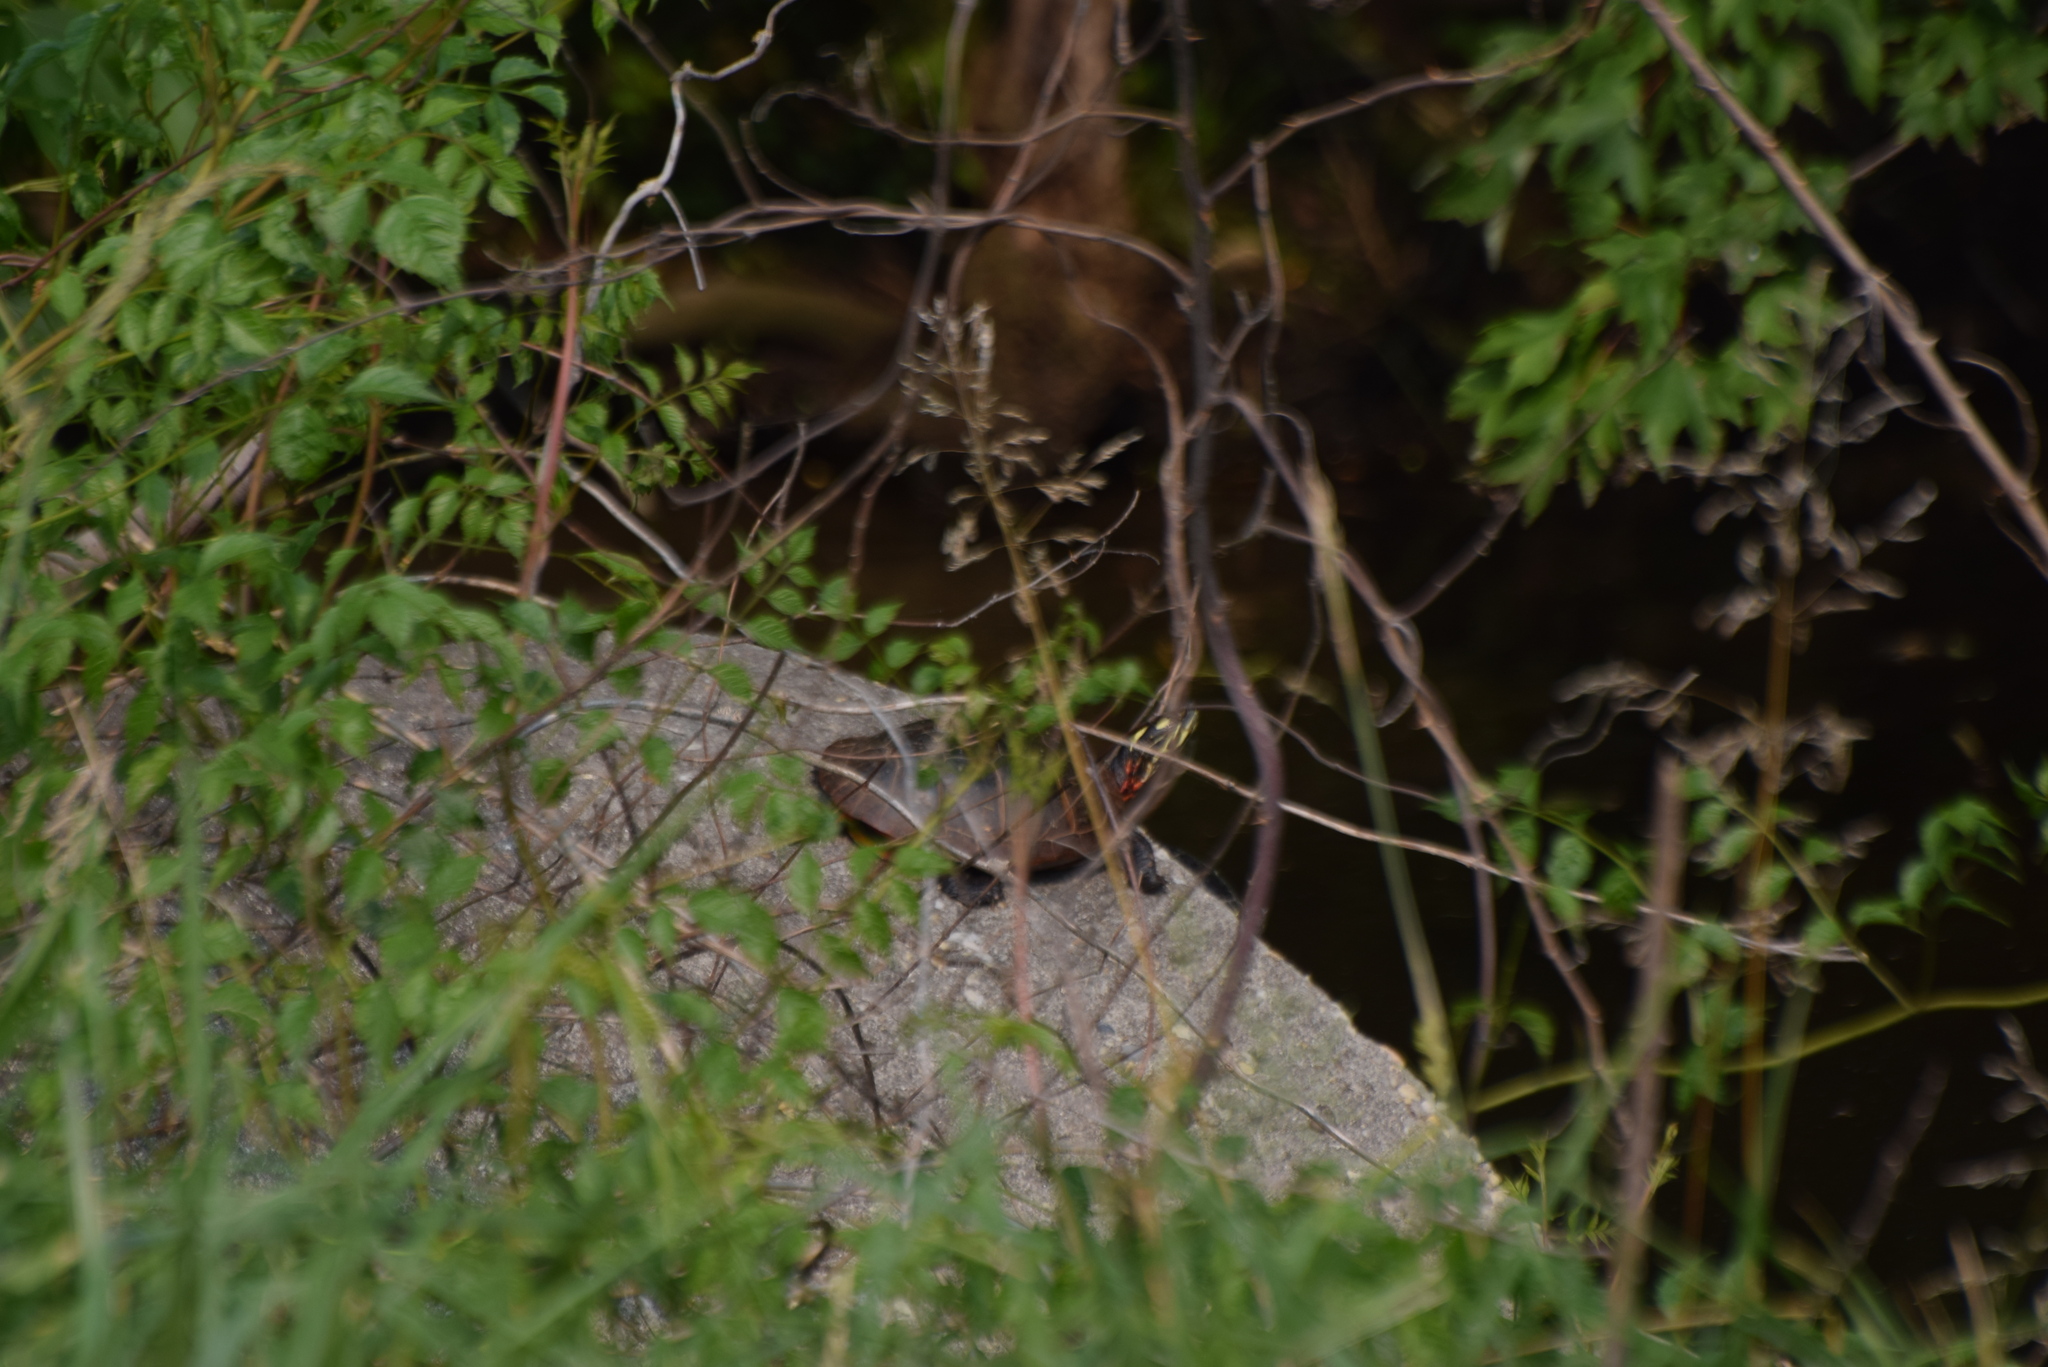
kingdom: Animalia
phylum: Chordata
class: Testudines
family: Emydidae
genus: Chrysemys
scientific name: Chrysemys picta
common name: Painted turtle
